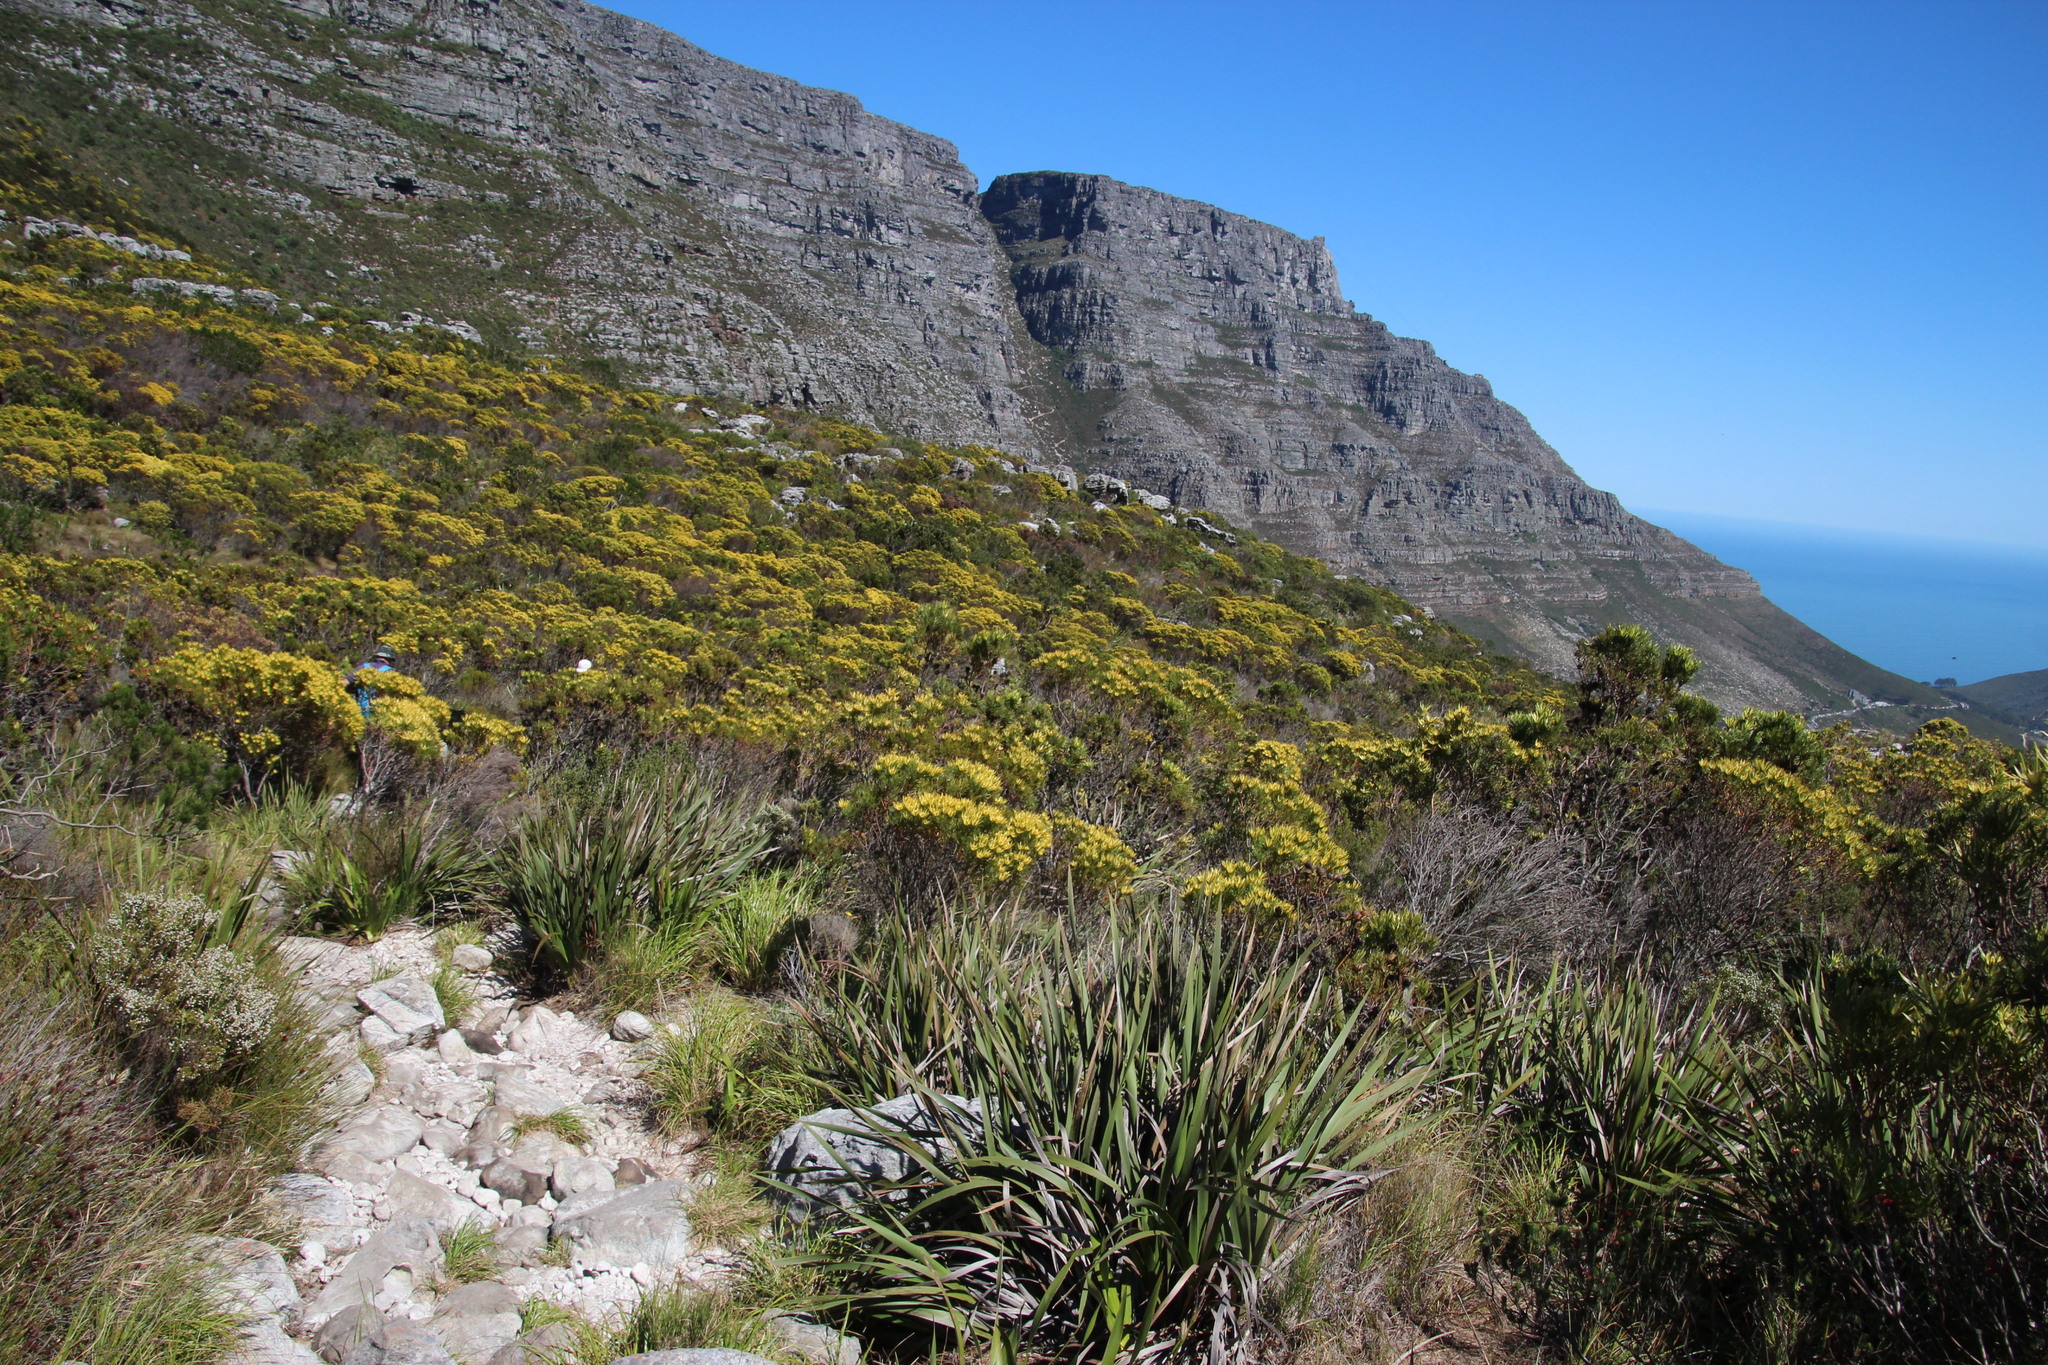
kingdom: Plantae
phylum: Tracheophyta
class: Magnoliopsida
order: Proteales
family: Proteaceae
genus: Leucadendron
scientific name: Leucadendron xanthoconus
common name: Sickle-leaf conebush
